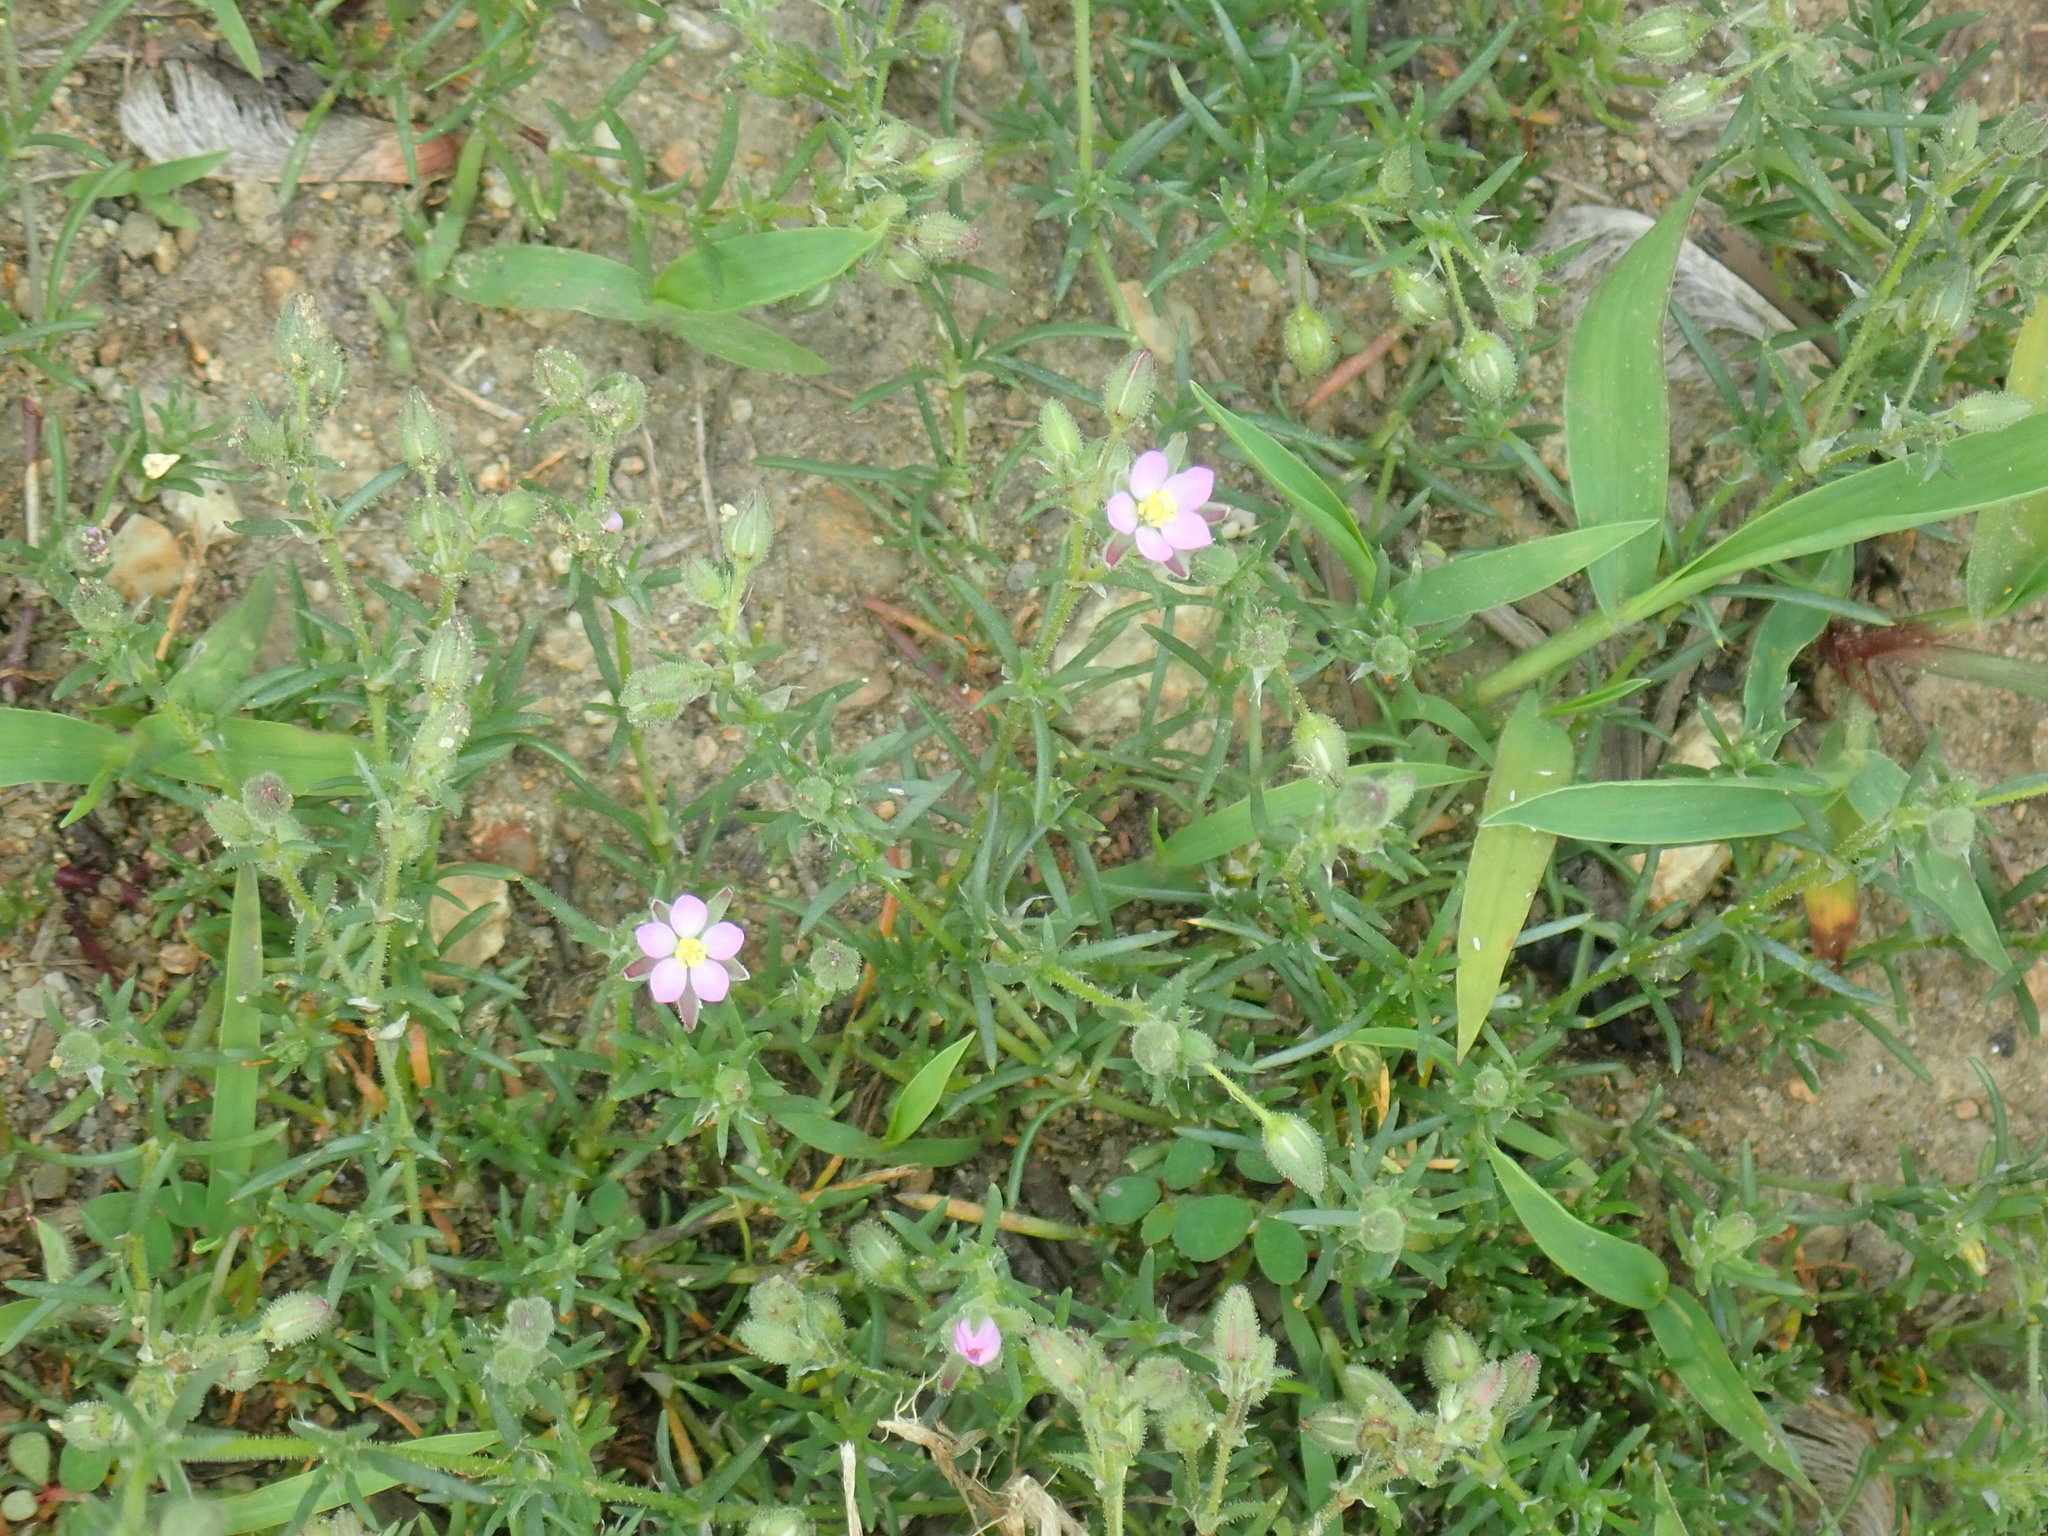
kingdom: Plantae
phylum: Tracheophyta
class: Magnoliopsida
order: Caryophyllales
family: Caryophyllaceae
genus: Spergularia
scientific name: Spergularia rubra
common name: Red sand-spurrey
